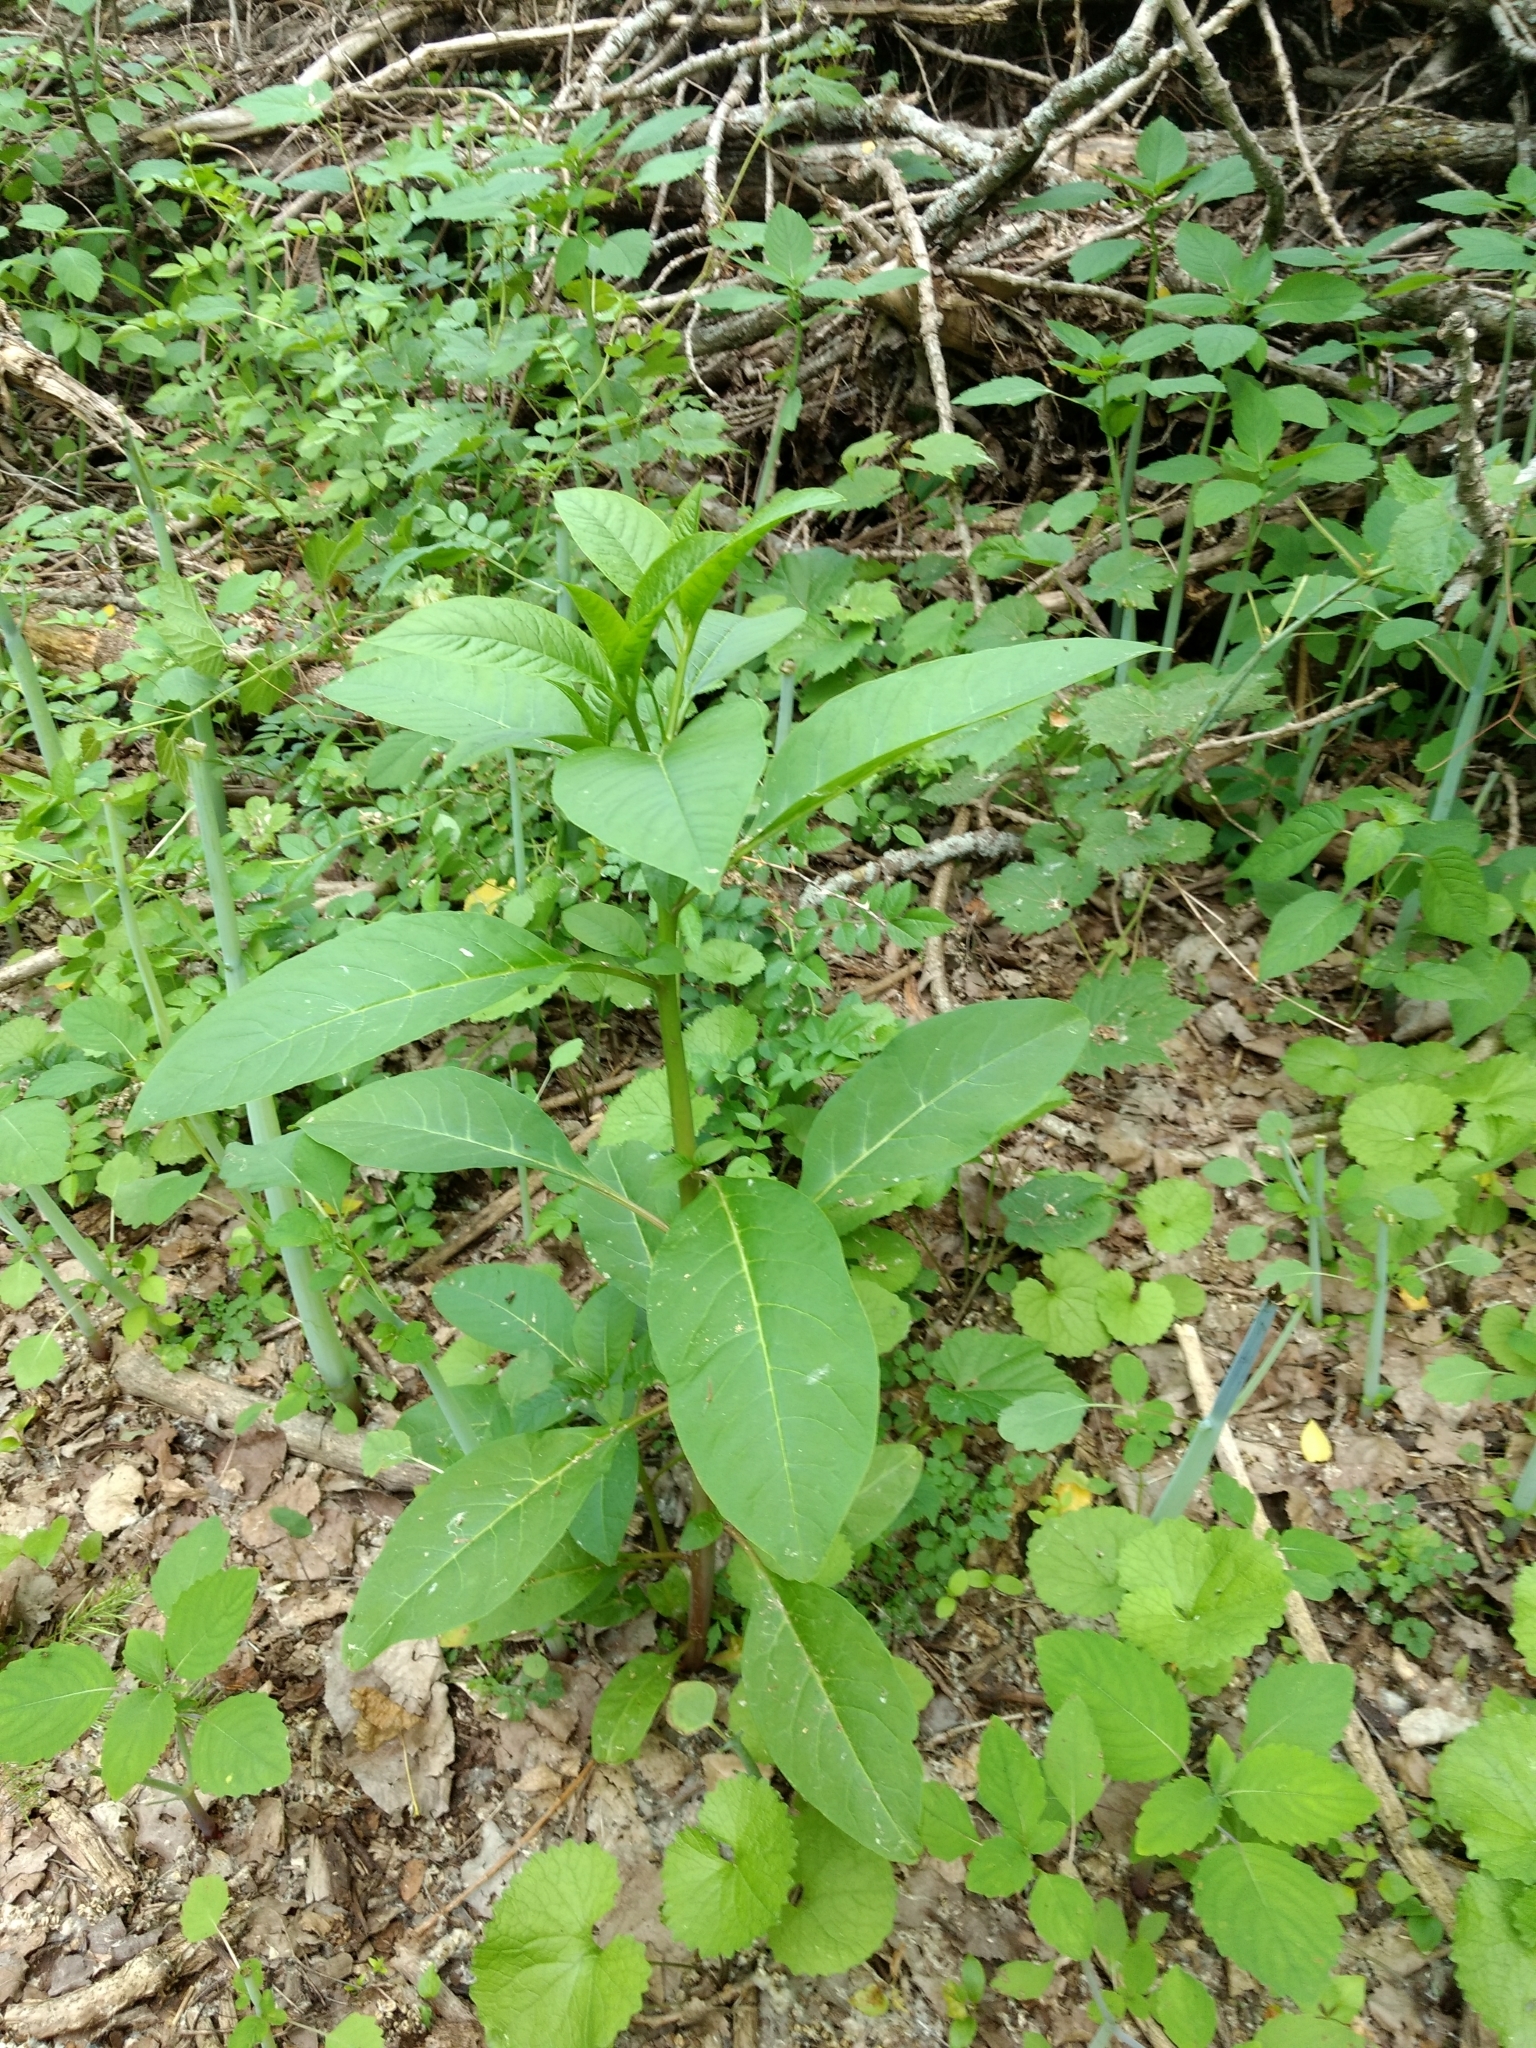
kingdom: Plantae
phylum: Tracheophyta
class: Magnoliopsida
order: Caryophyllales
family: Phytolaccaceae
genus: Phytolacca
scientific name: Phytolacca americana
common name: American pokeweed
